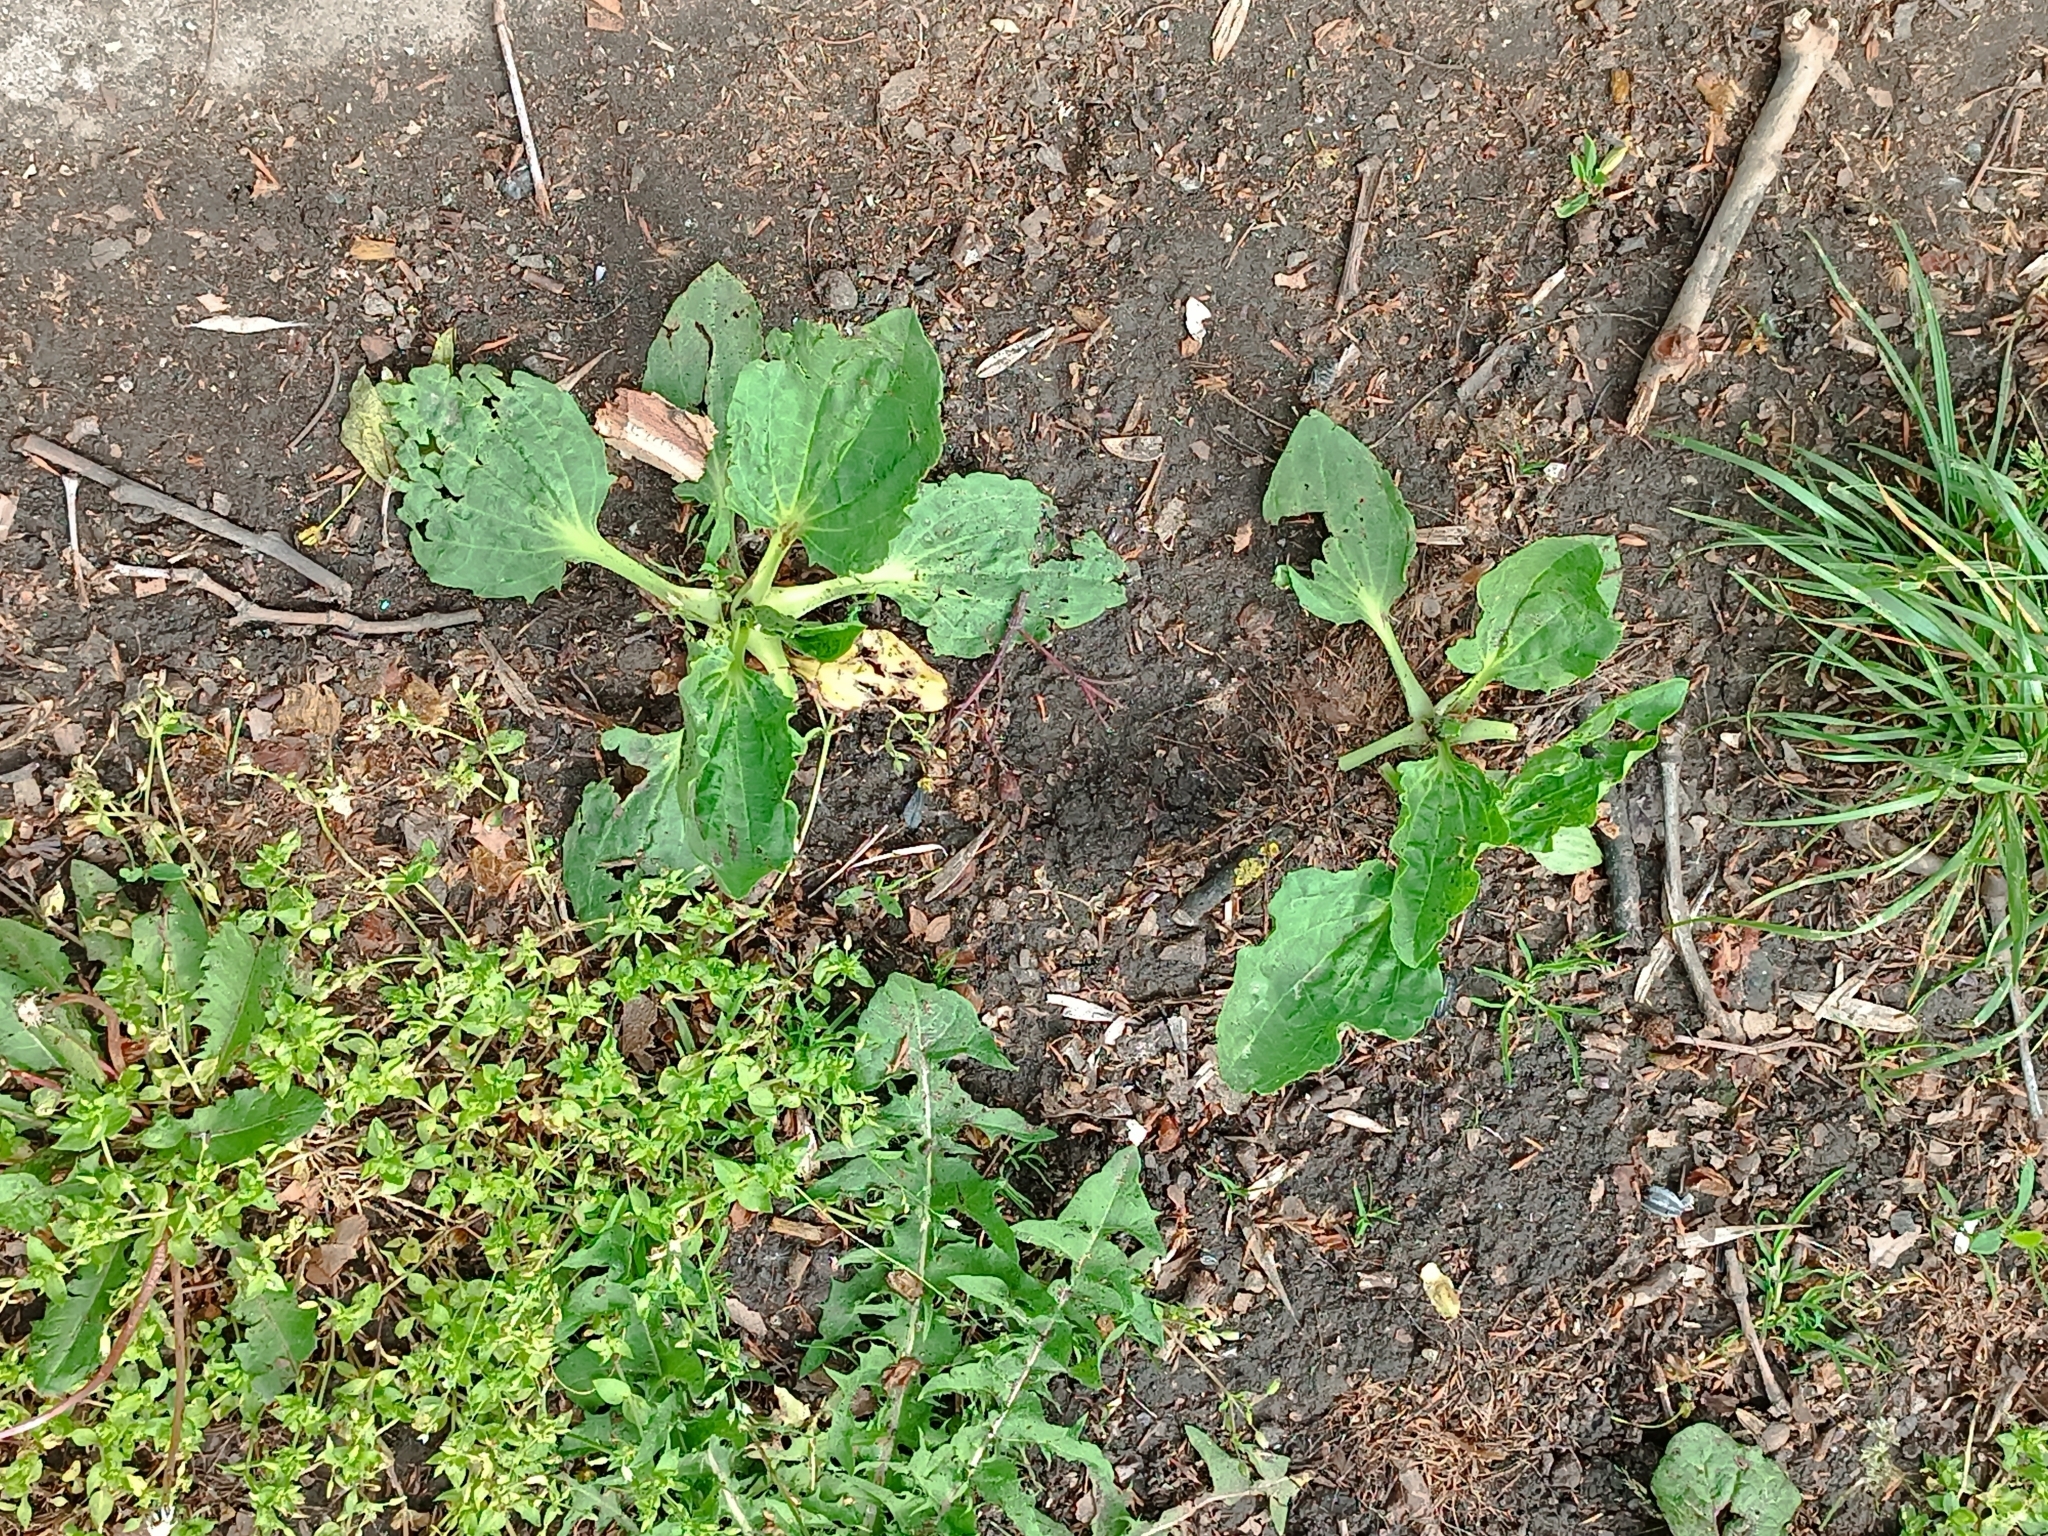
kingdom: Plantae
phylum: Tracheophyta
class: Magnoliopsida
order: Lamiales
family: Plantaginaceae
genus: Plantago
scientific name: Plantago major
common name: Common plantain
